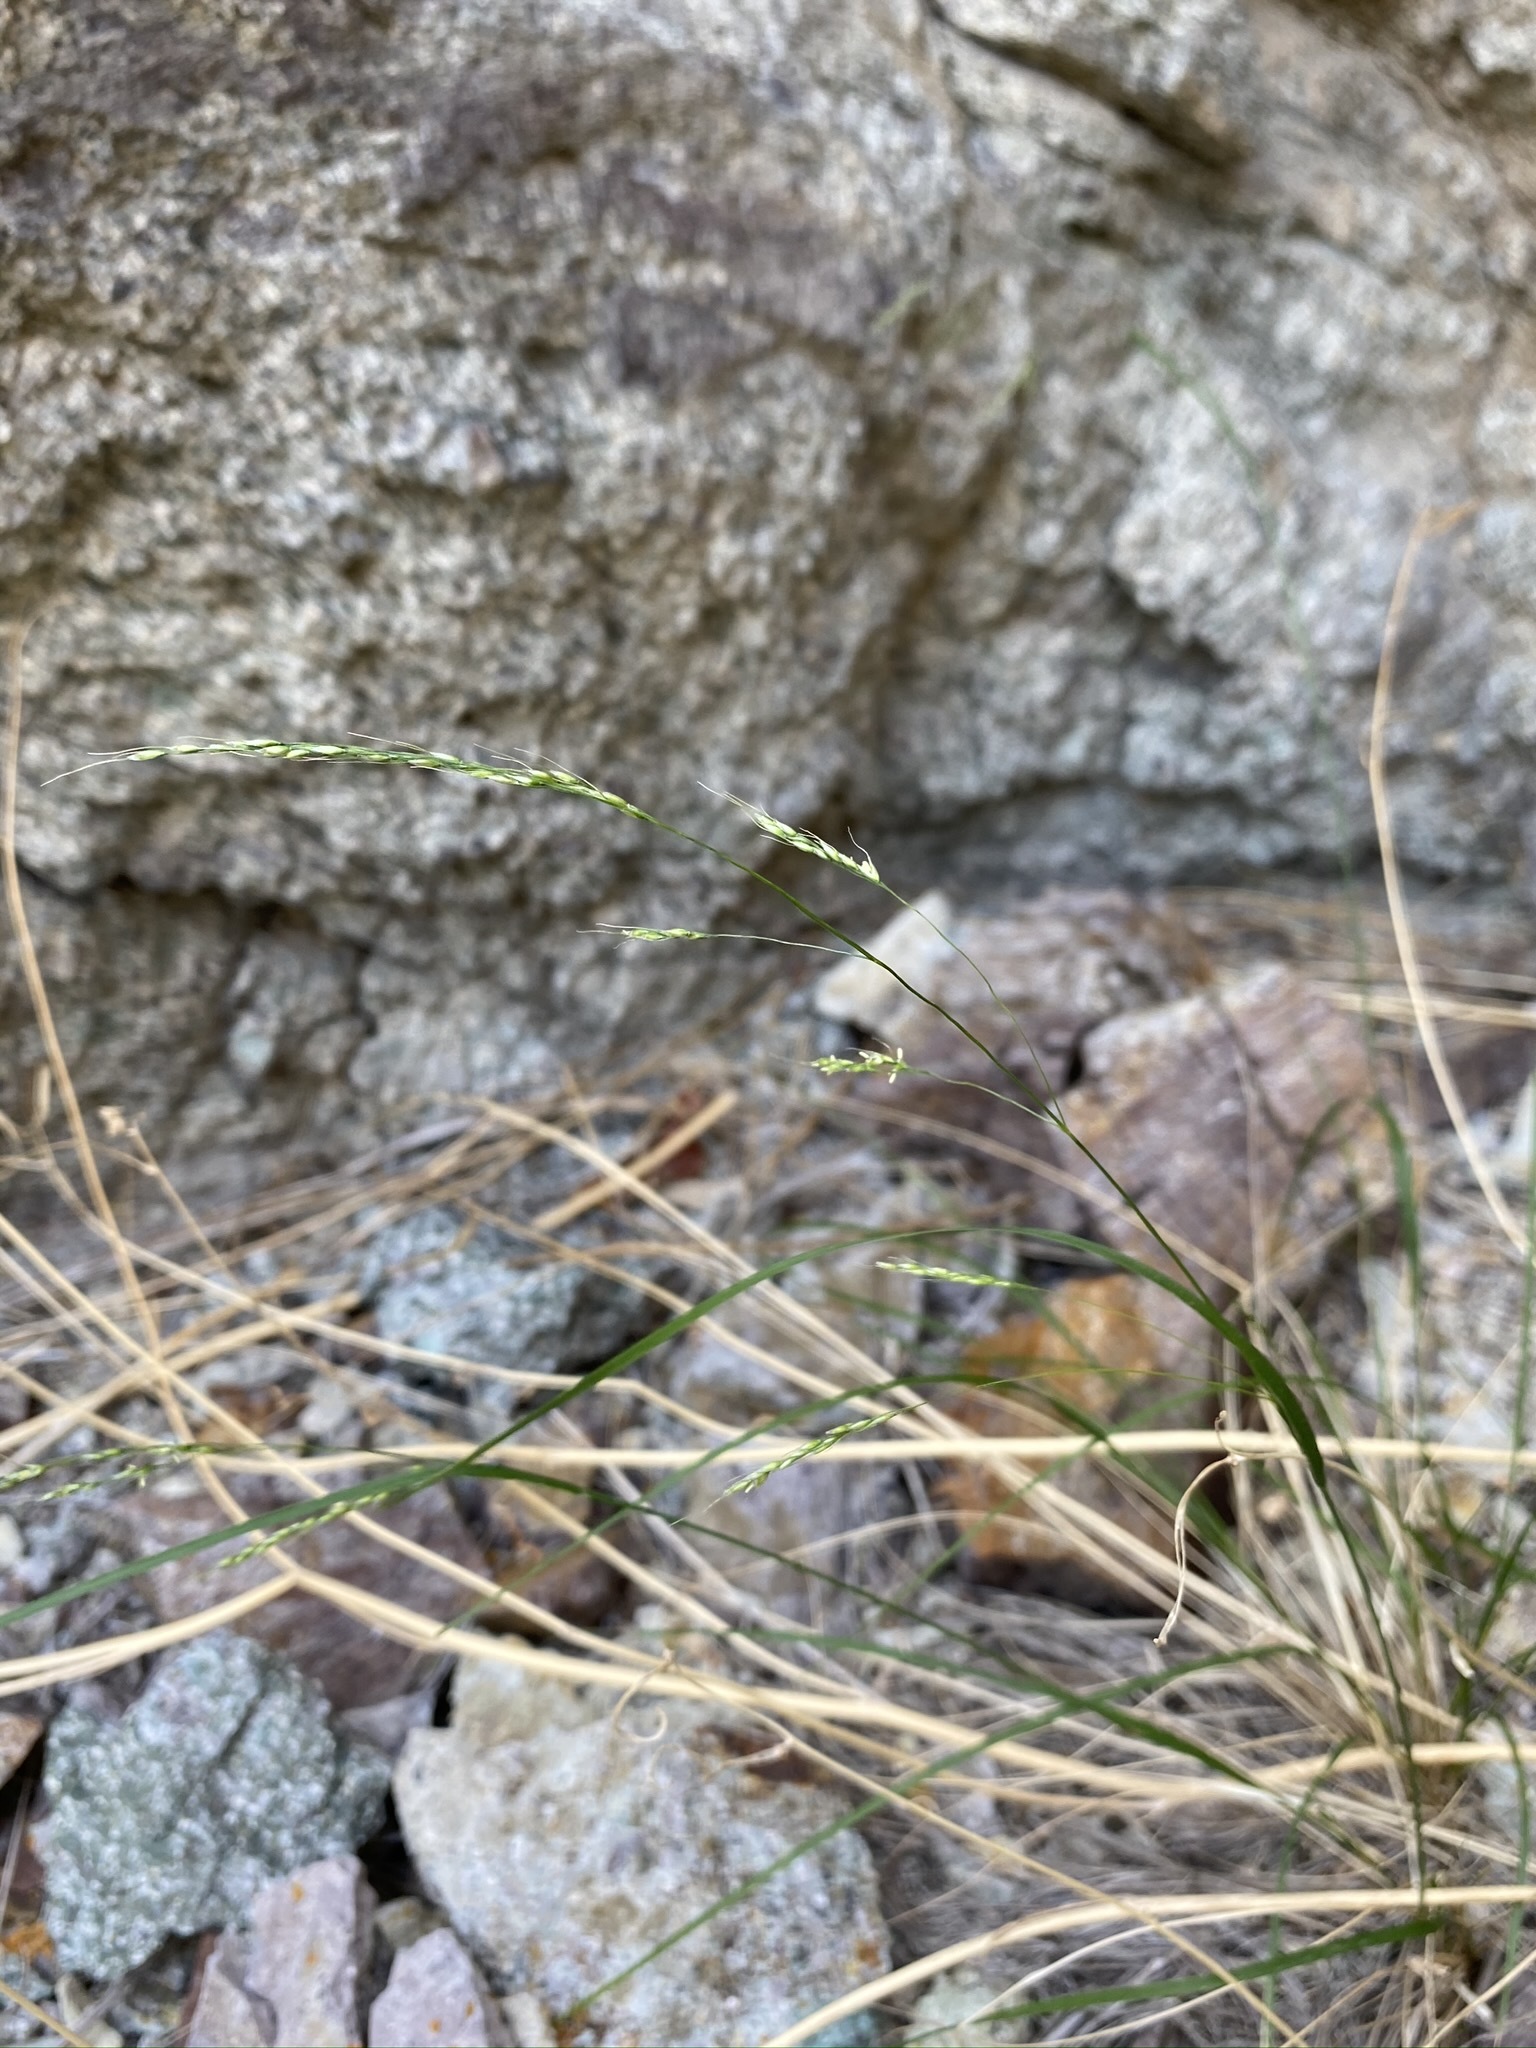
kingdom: Plantae
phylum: Tracheophyta
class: Liliopsida
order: Poales
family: Poaceae
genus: Piptatheropsis
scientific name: Piptatheropsis micrantha
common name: Little-seed mountain ricegrass
